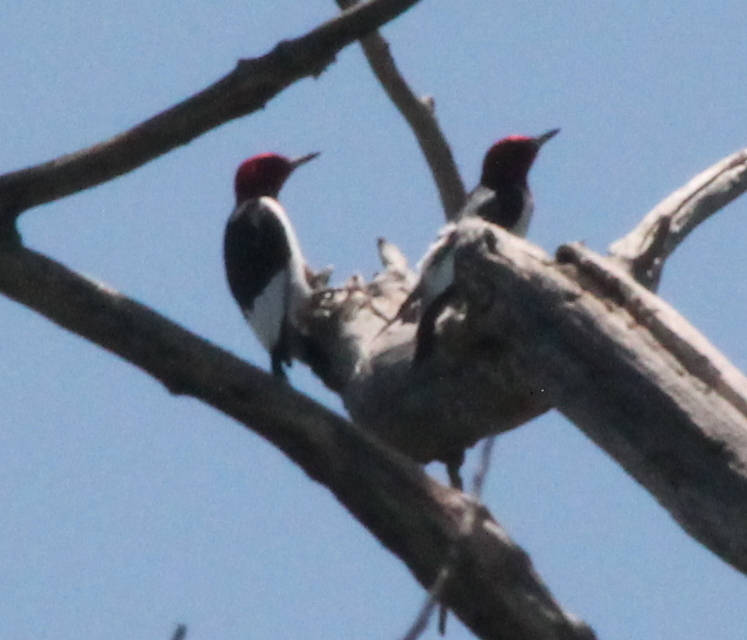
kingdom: Animalia
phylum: Chordata
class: Aves
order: Piciformes
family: Picidae
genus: Melanerpes
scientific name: Melanerpes erythrocephalus
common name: Red-headed woodpecker
